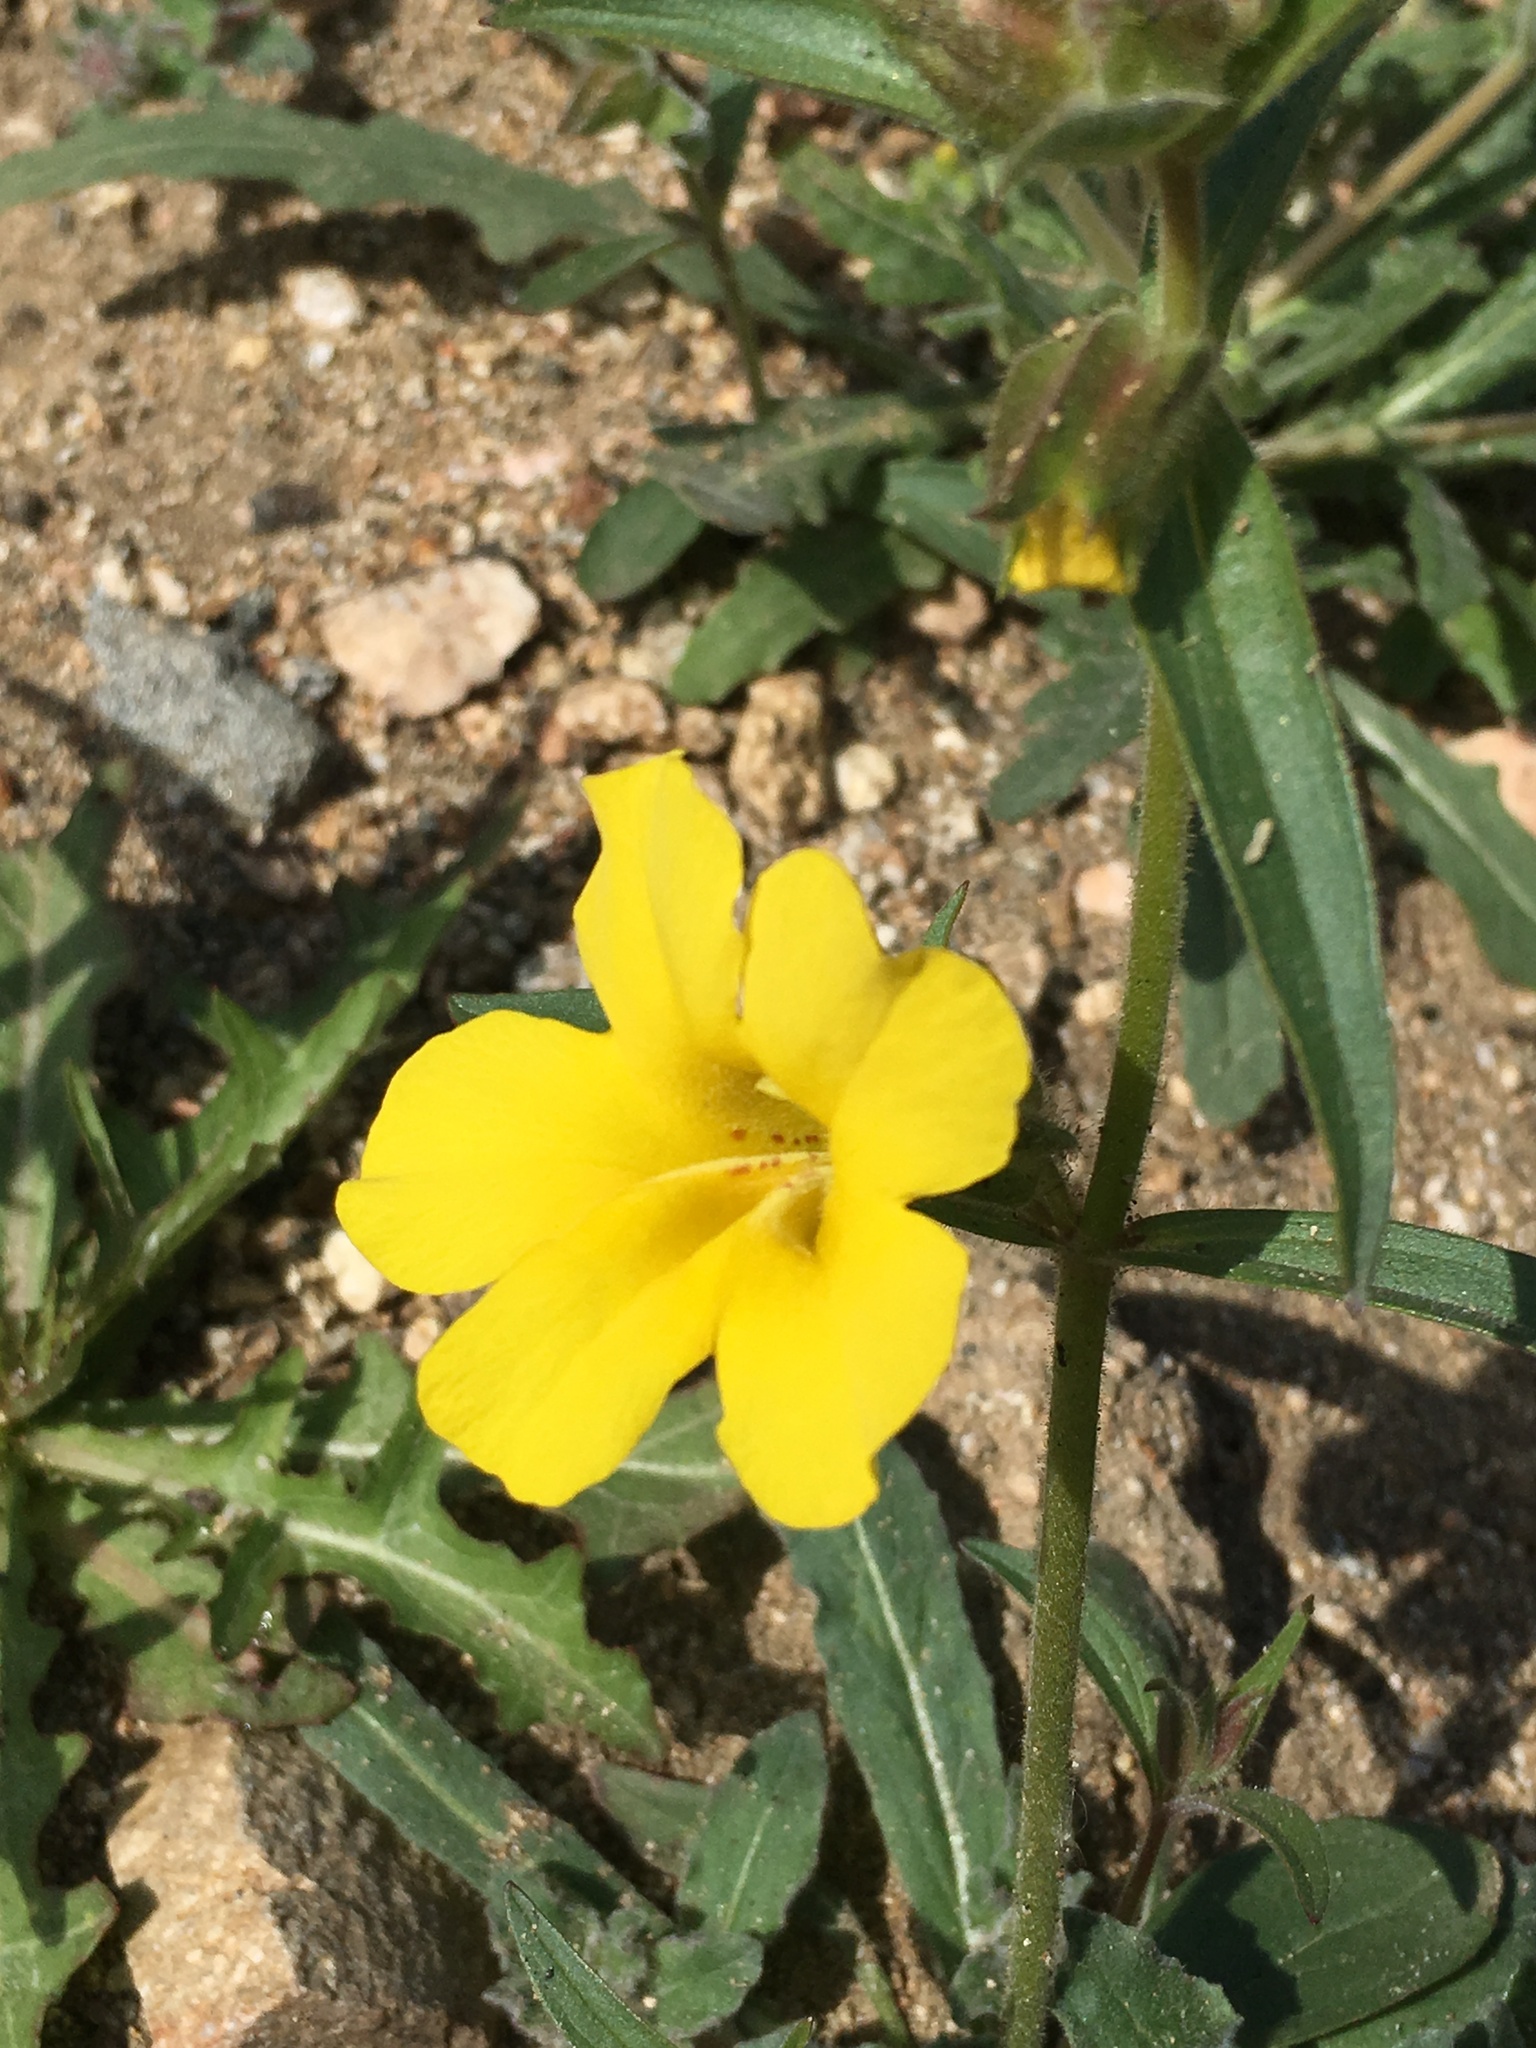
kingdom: Plantae
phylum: Tracheophyta
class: Magnoliopsida
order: Lamiales
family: Phrymaceae
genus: Diplacus
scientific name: Diplacus brevipes
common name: Wide-throat yellow monkey-flower
